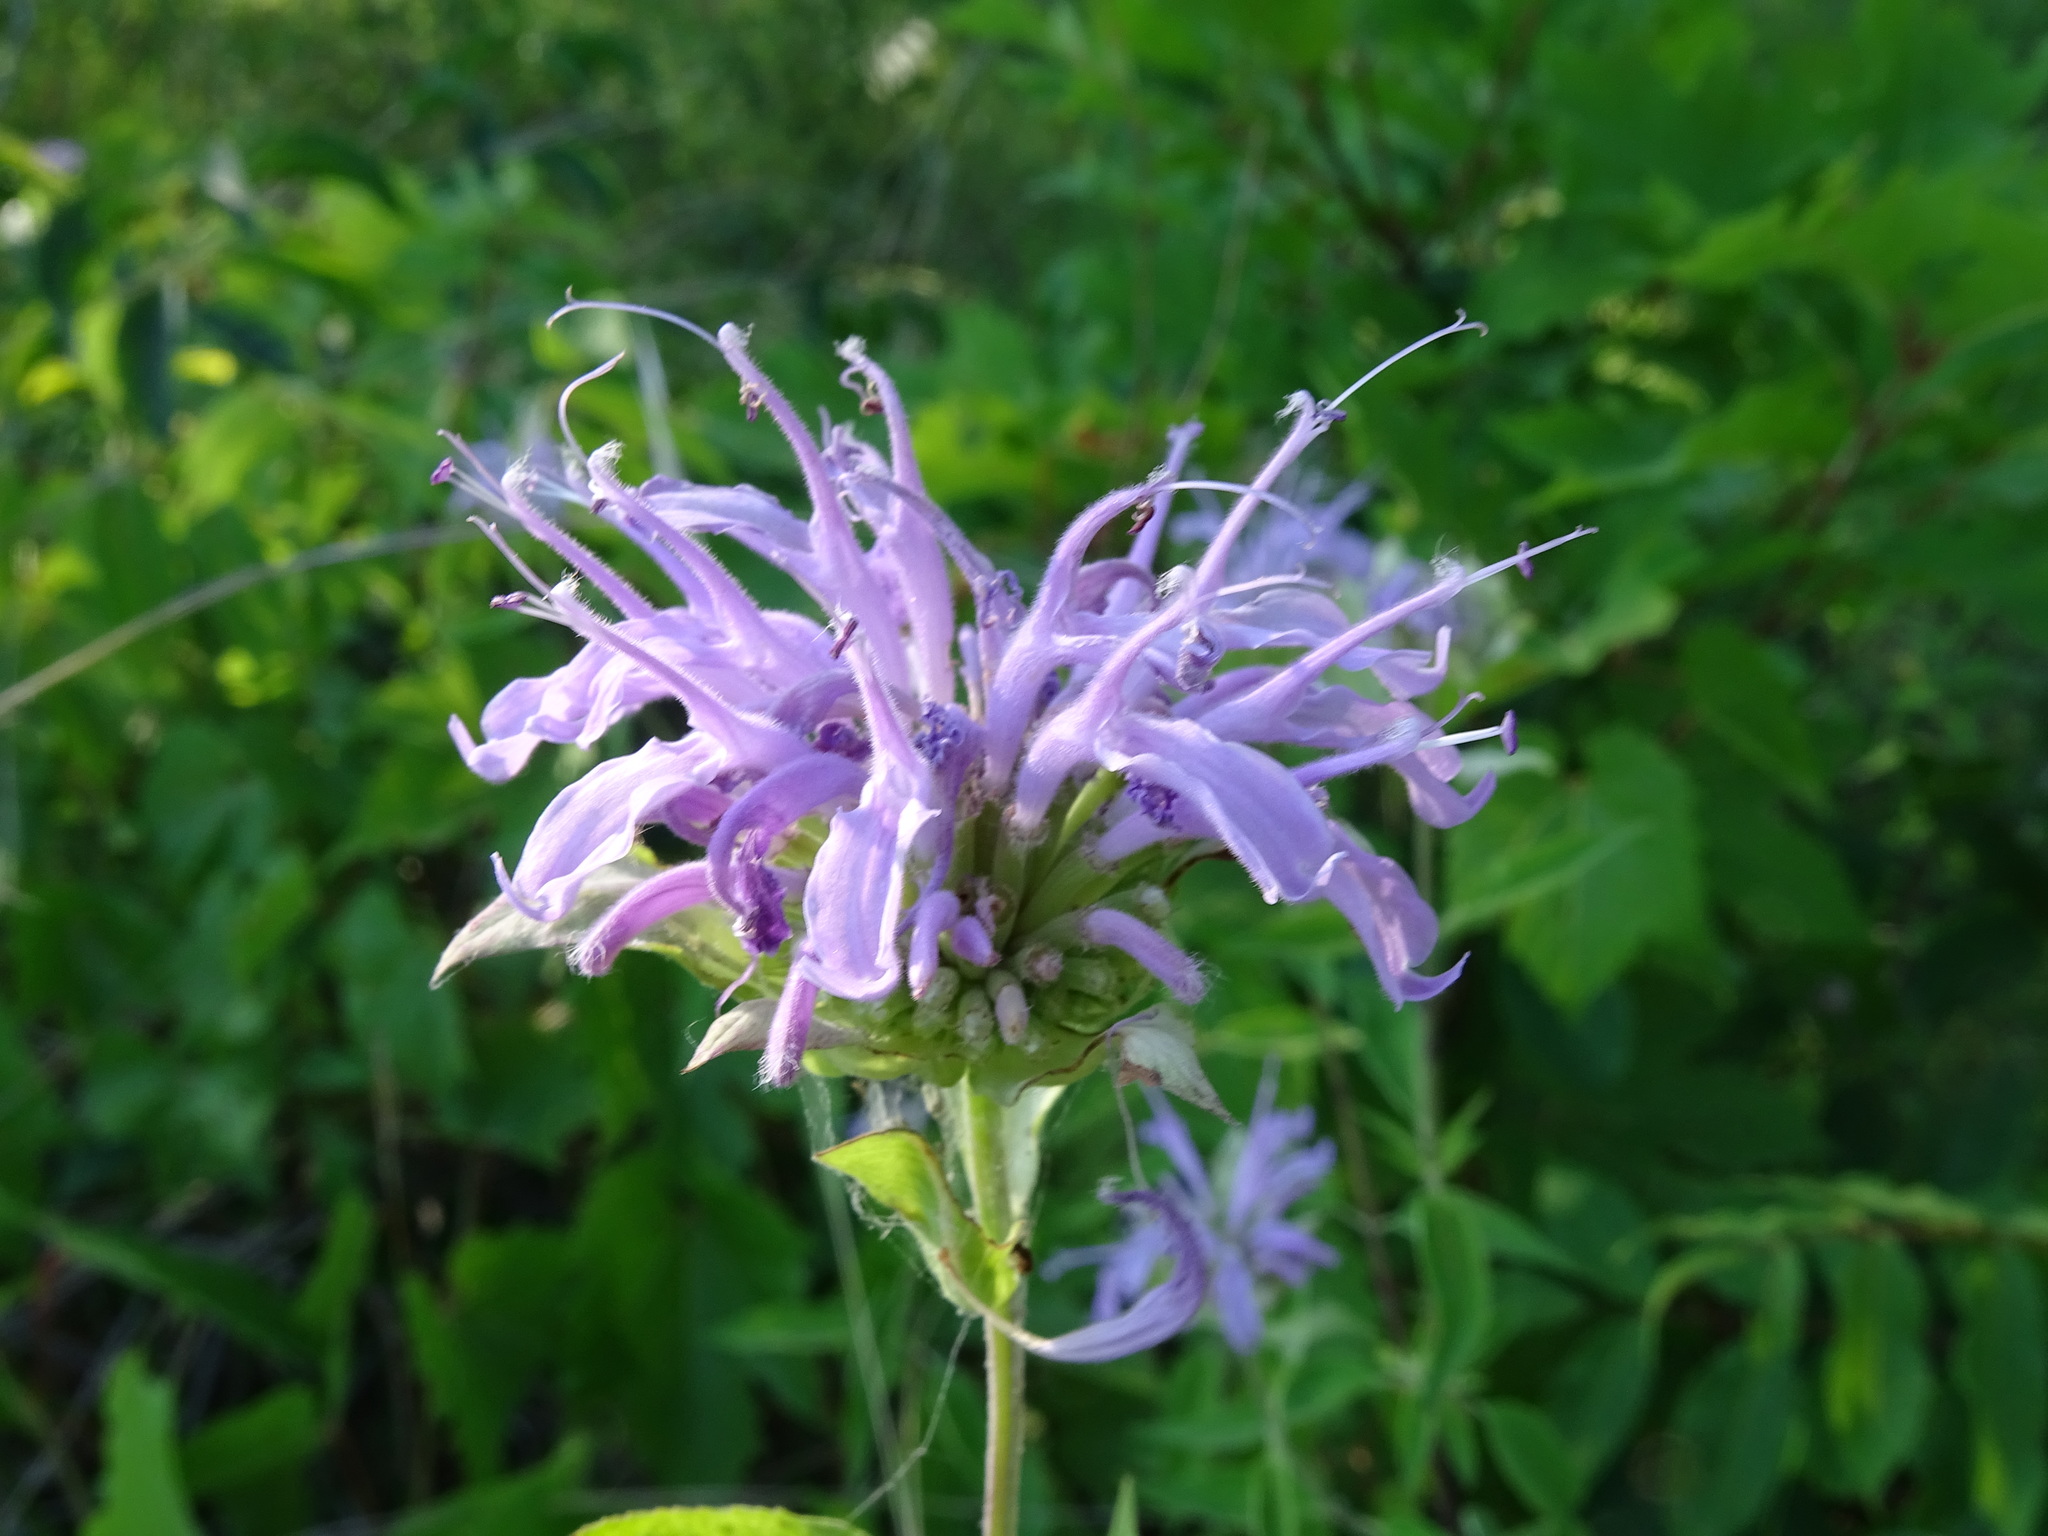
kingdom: Plantae
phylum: Tracheophyta
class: Magnoliopsida
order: Lamiales
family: Lamiaceae
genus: Monarda
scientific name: Monarda fistulosa
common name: Purple beebalm
